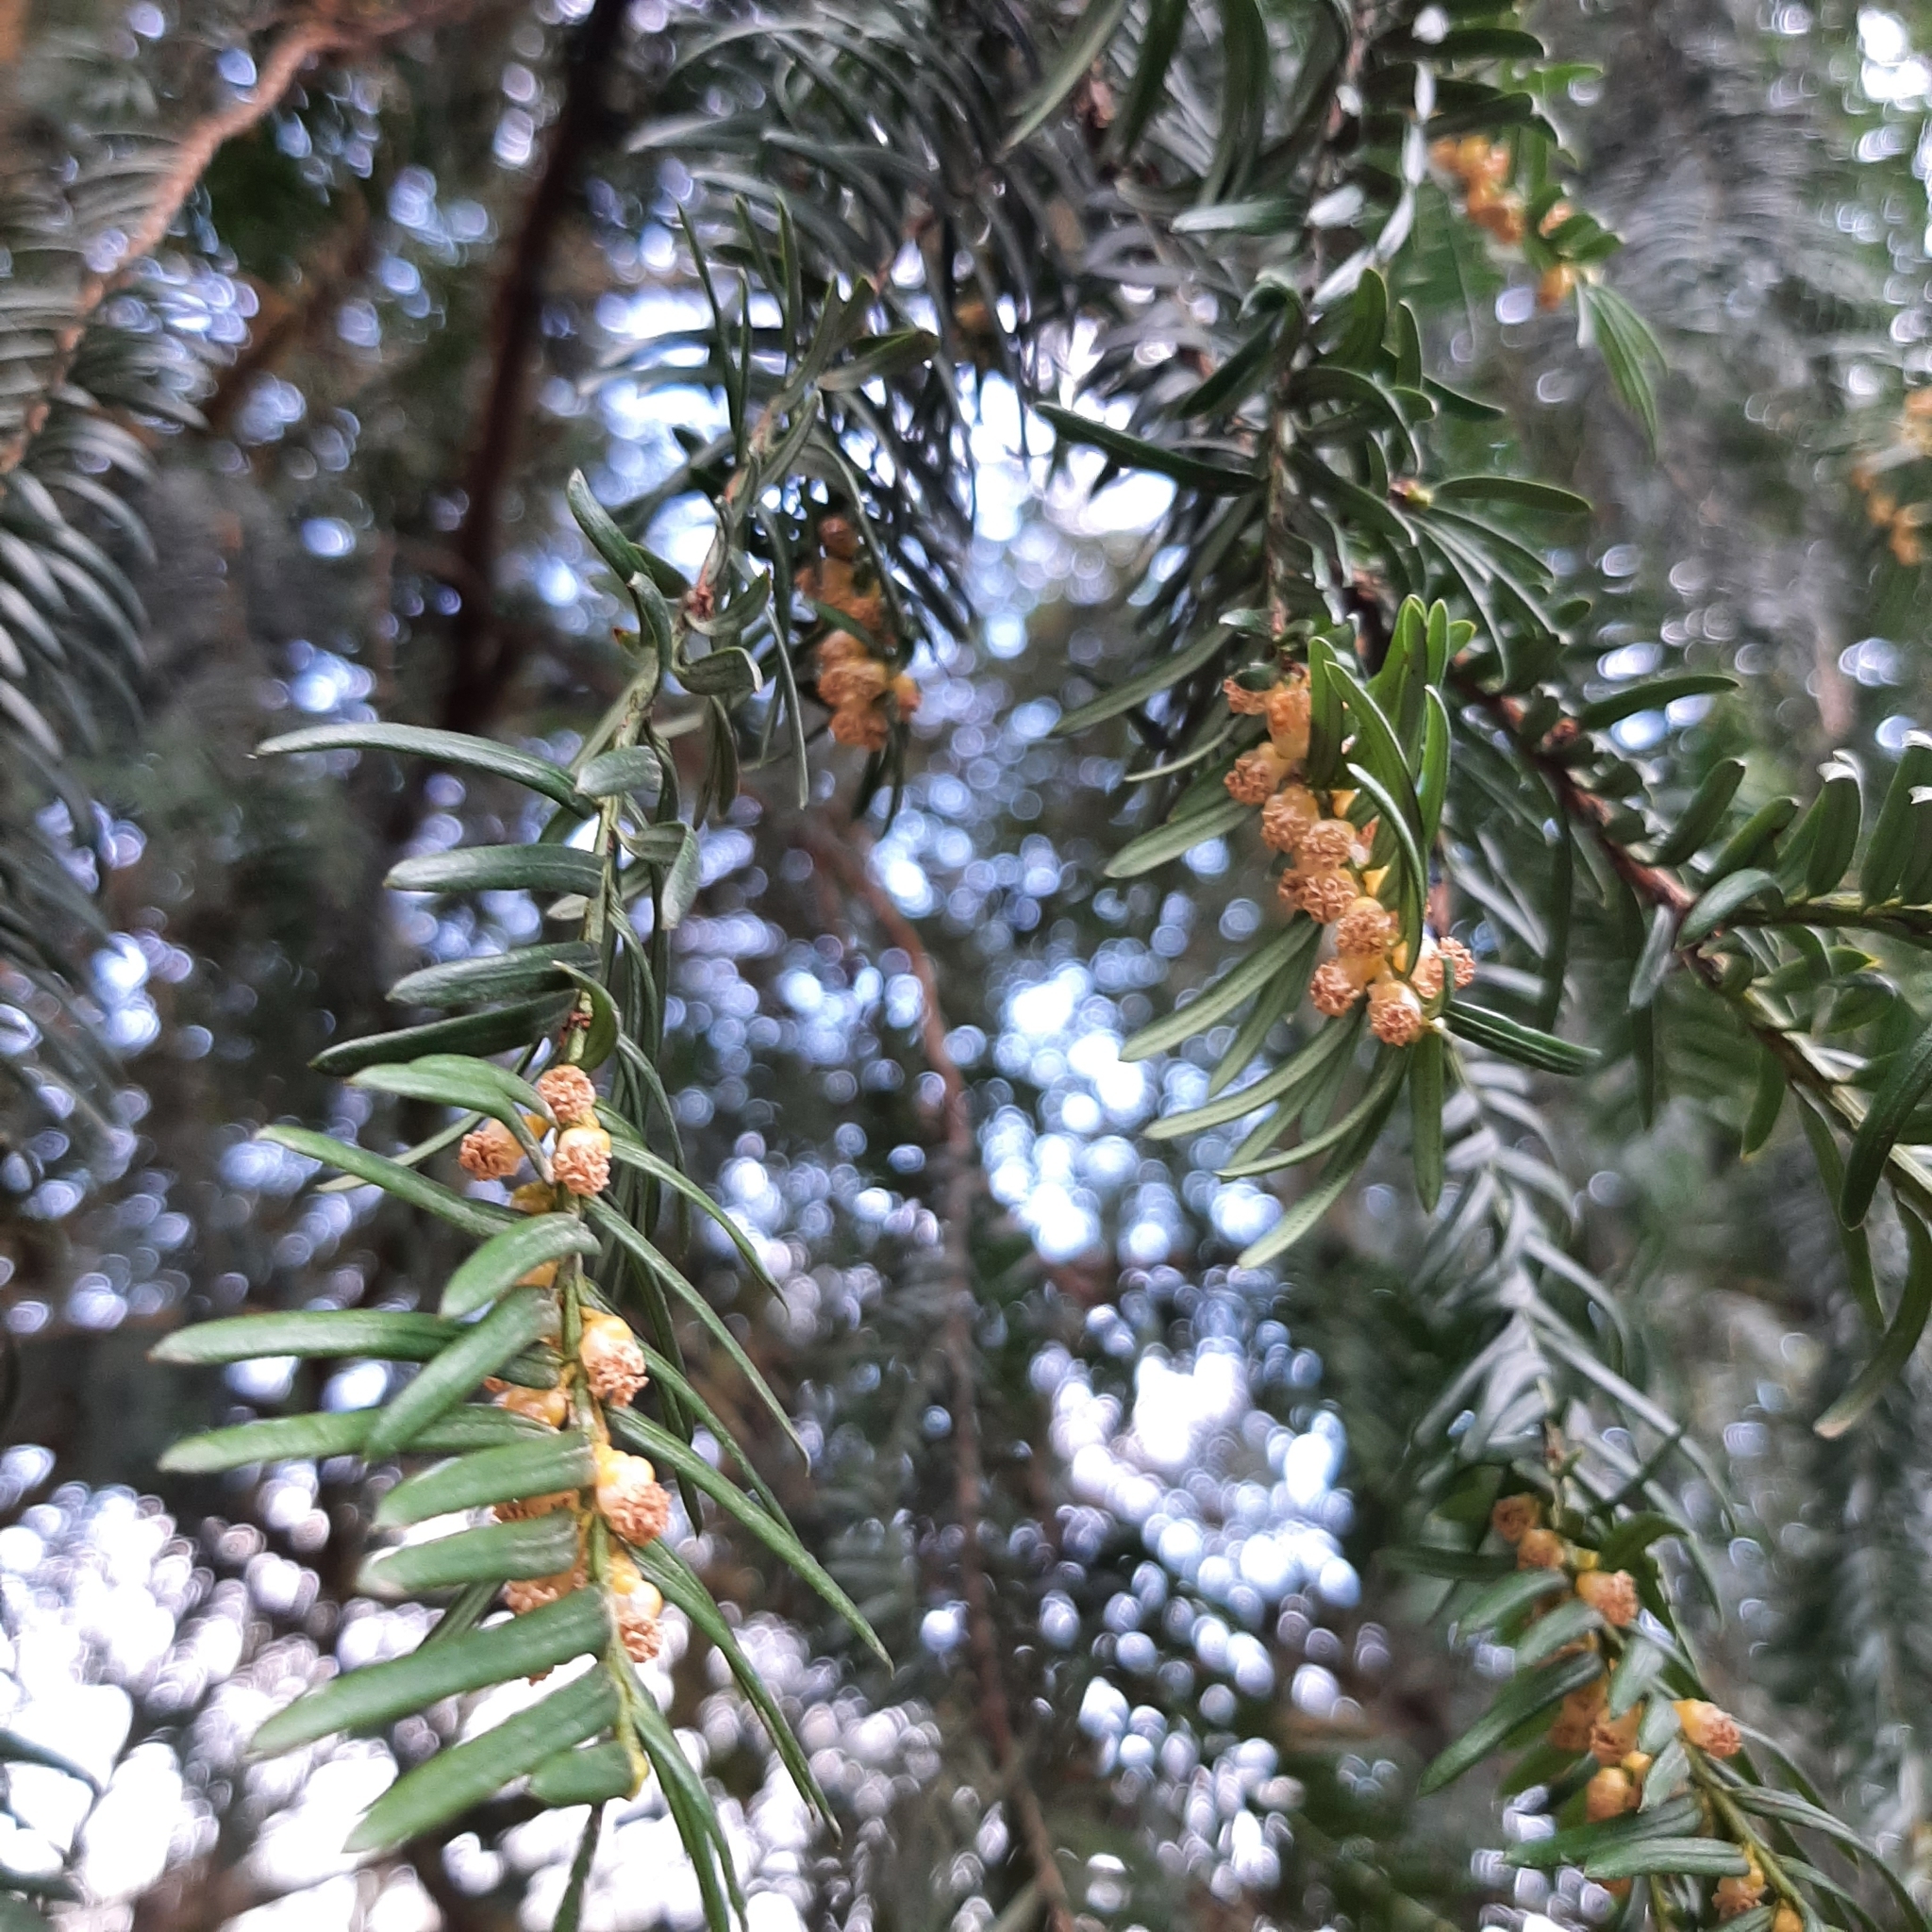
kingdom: Plantae
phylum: Tracheophyta
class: Pinopsida
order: Pinales
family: Taxaceae
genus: Taxus
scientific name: Taxus baccata
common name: Yew
